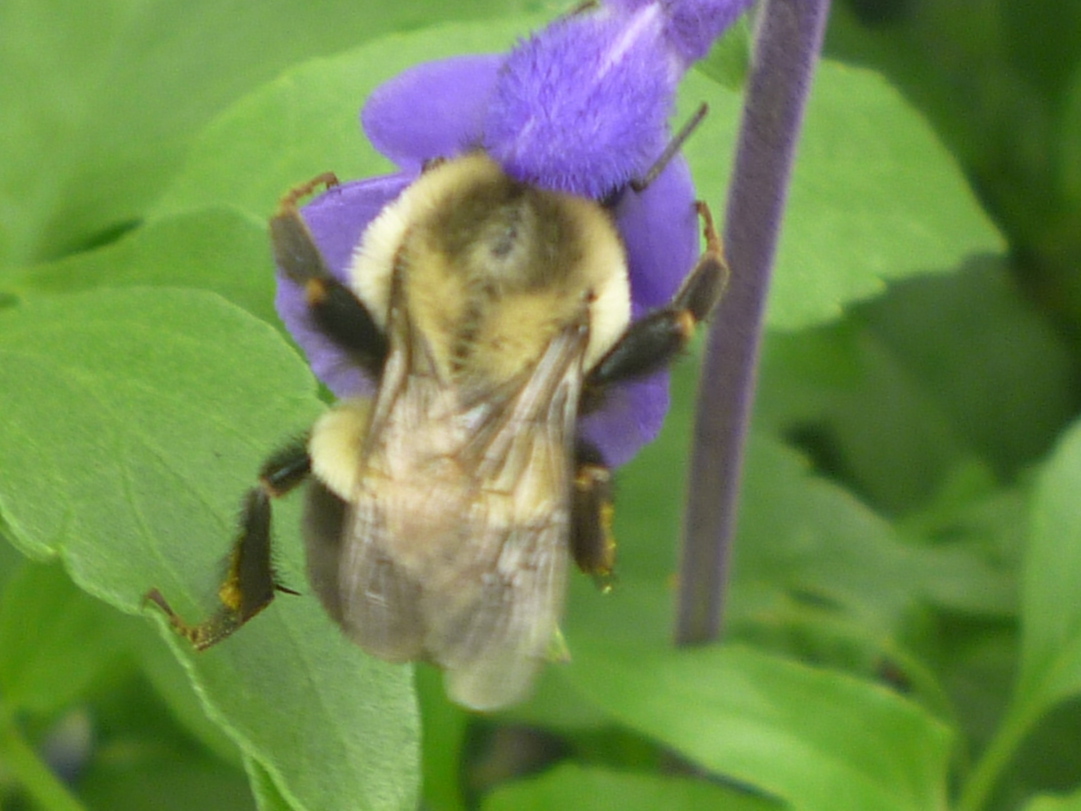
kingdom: Animalia
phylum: Arthropoda
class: Insecta
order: Hymenoptera
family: Apidae
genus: Bombus
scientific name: Bombus impatiens
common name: Common eastern bumble bee
